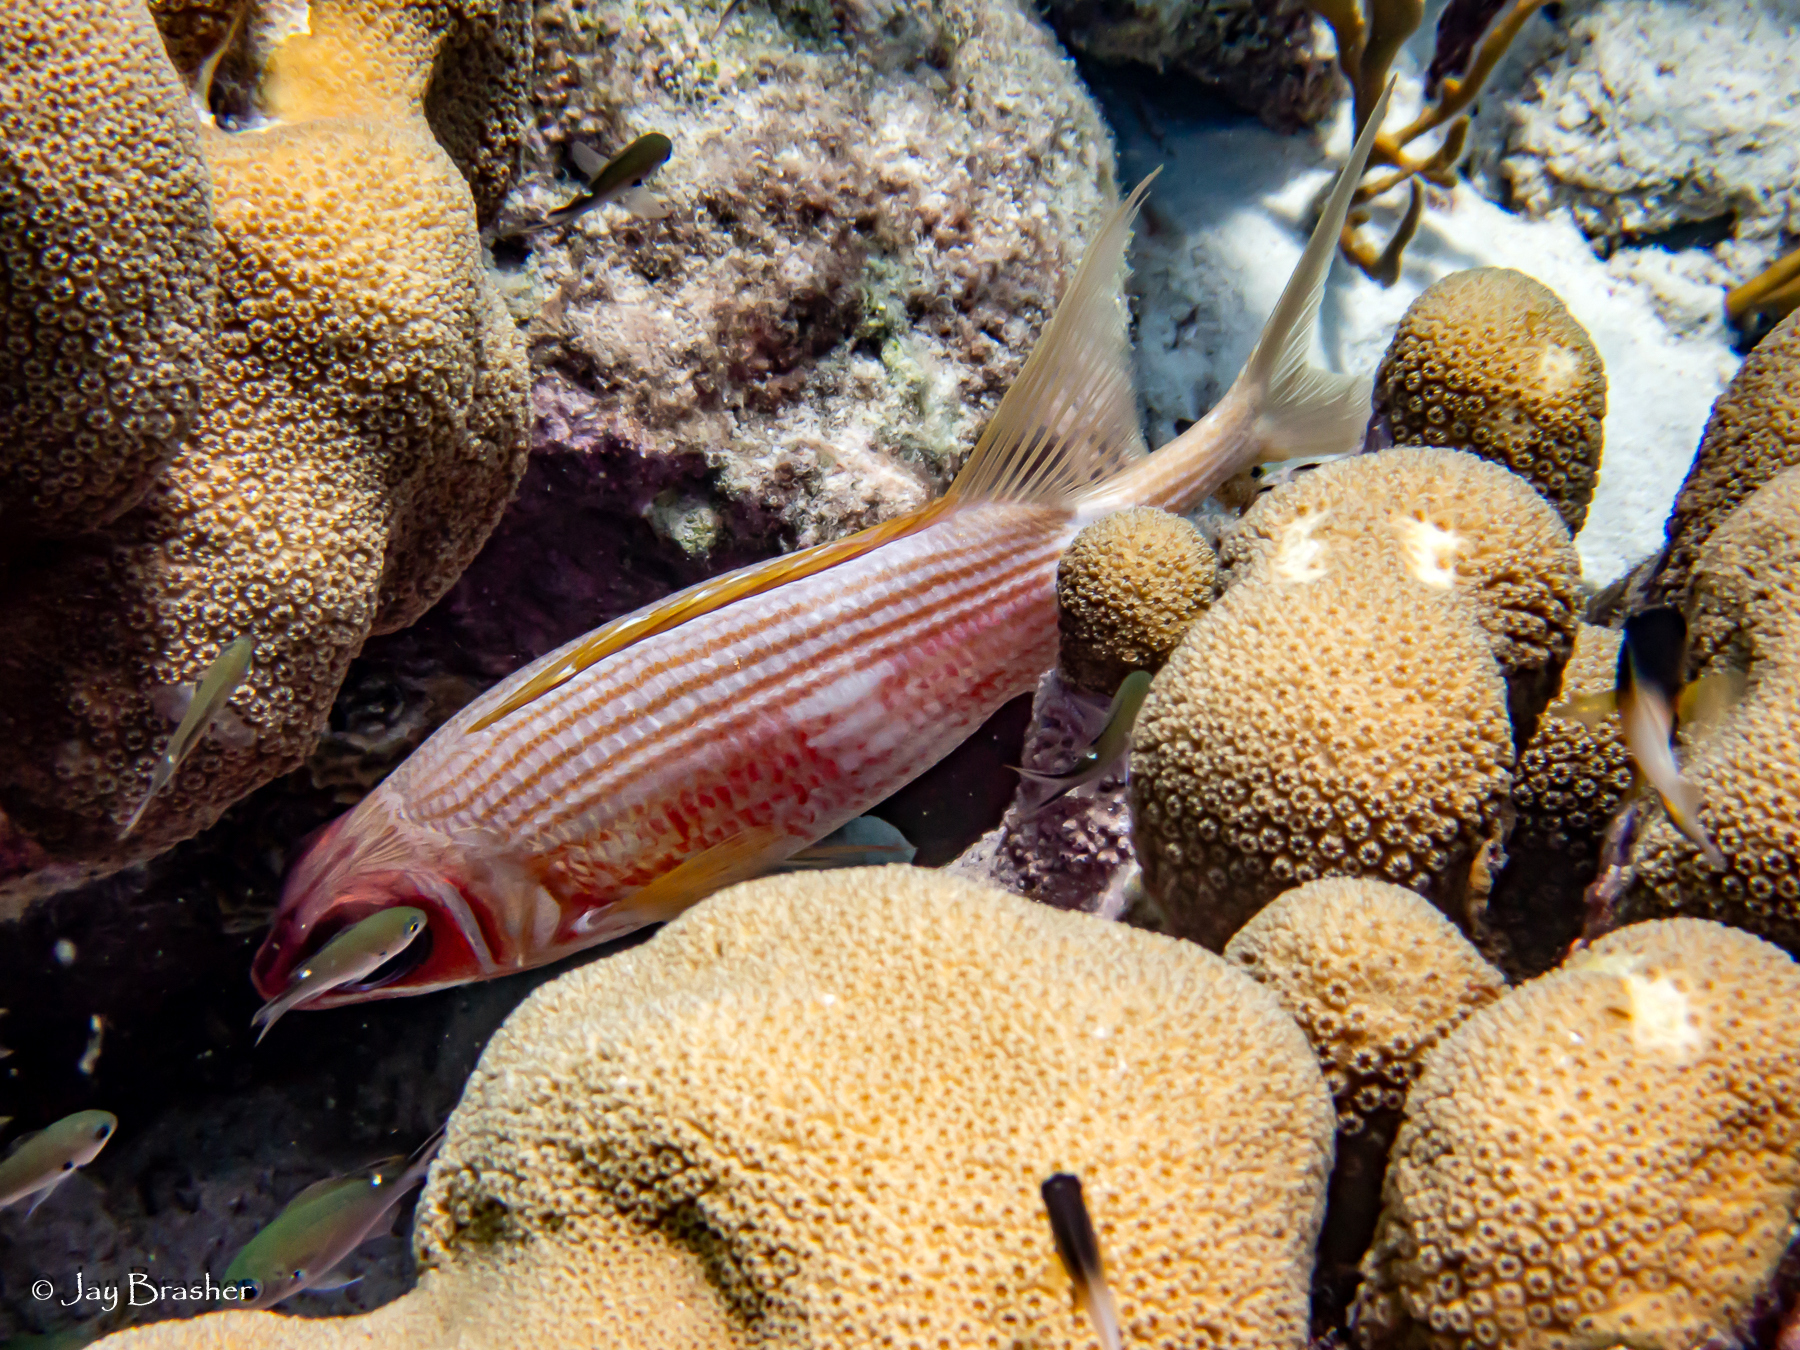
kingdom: Animalia
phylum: Cnidaria
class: Anthozoa
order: Scleractinia
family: Merulinidae
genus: Orbicella
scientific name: Orbicella annularis
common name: Boulder star coral
